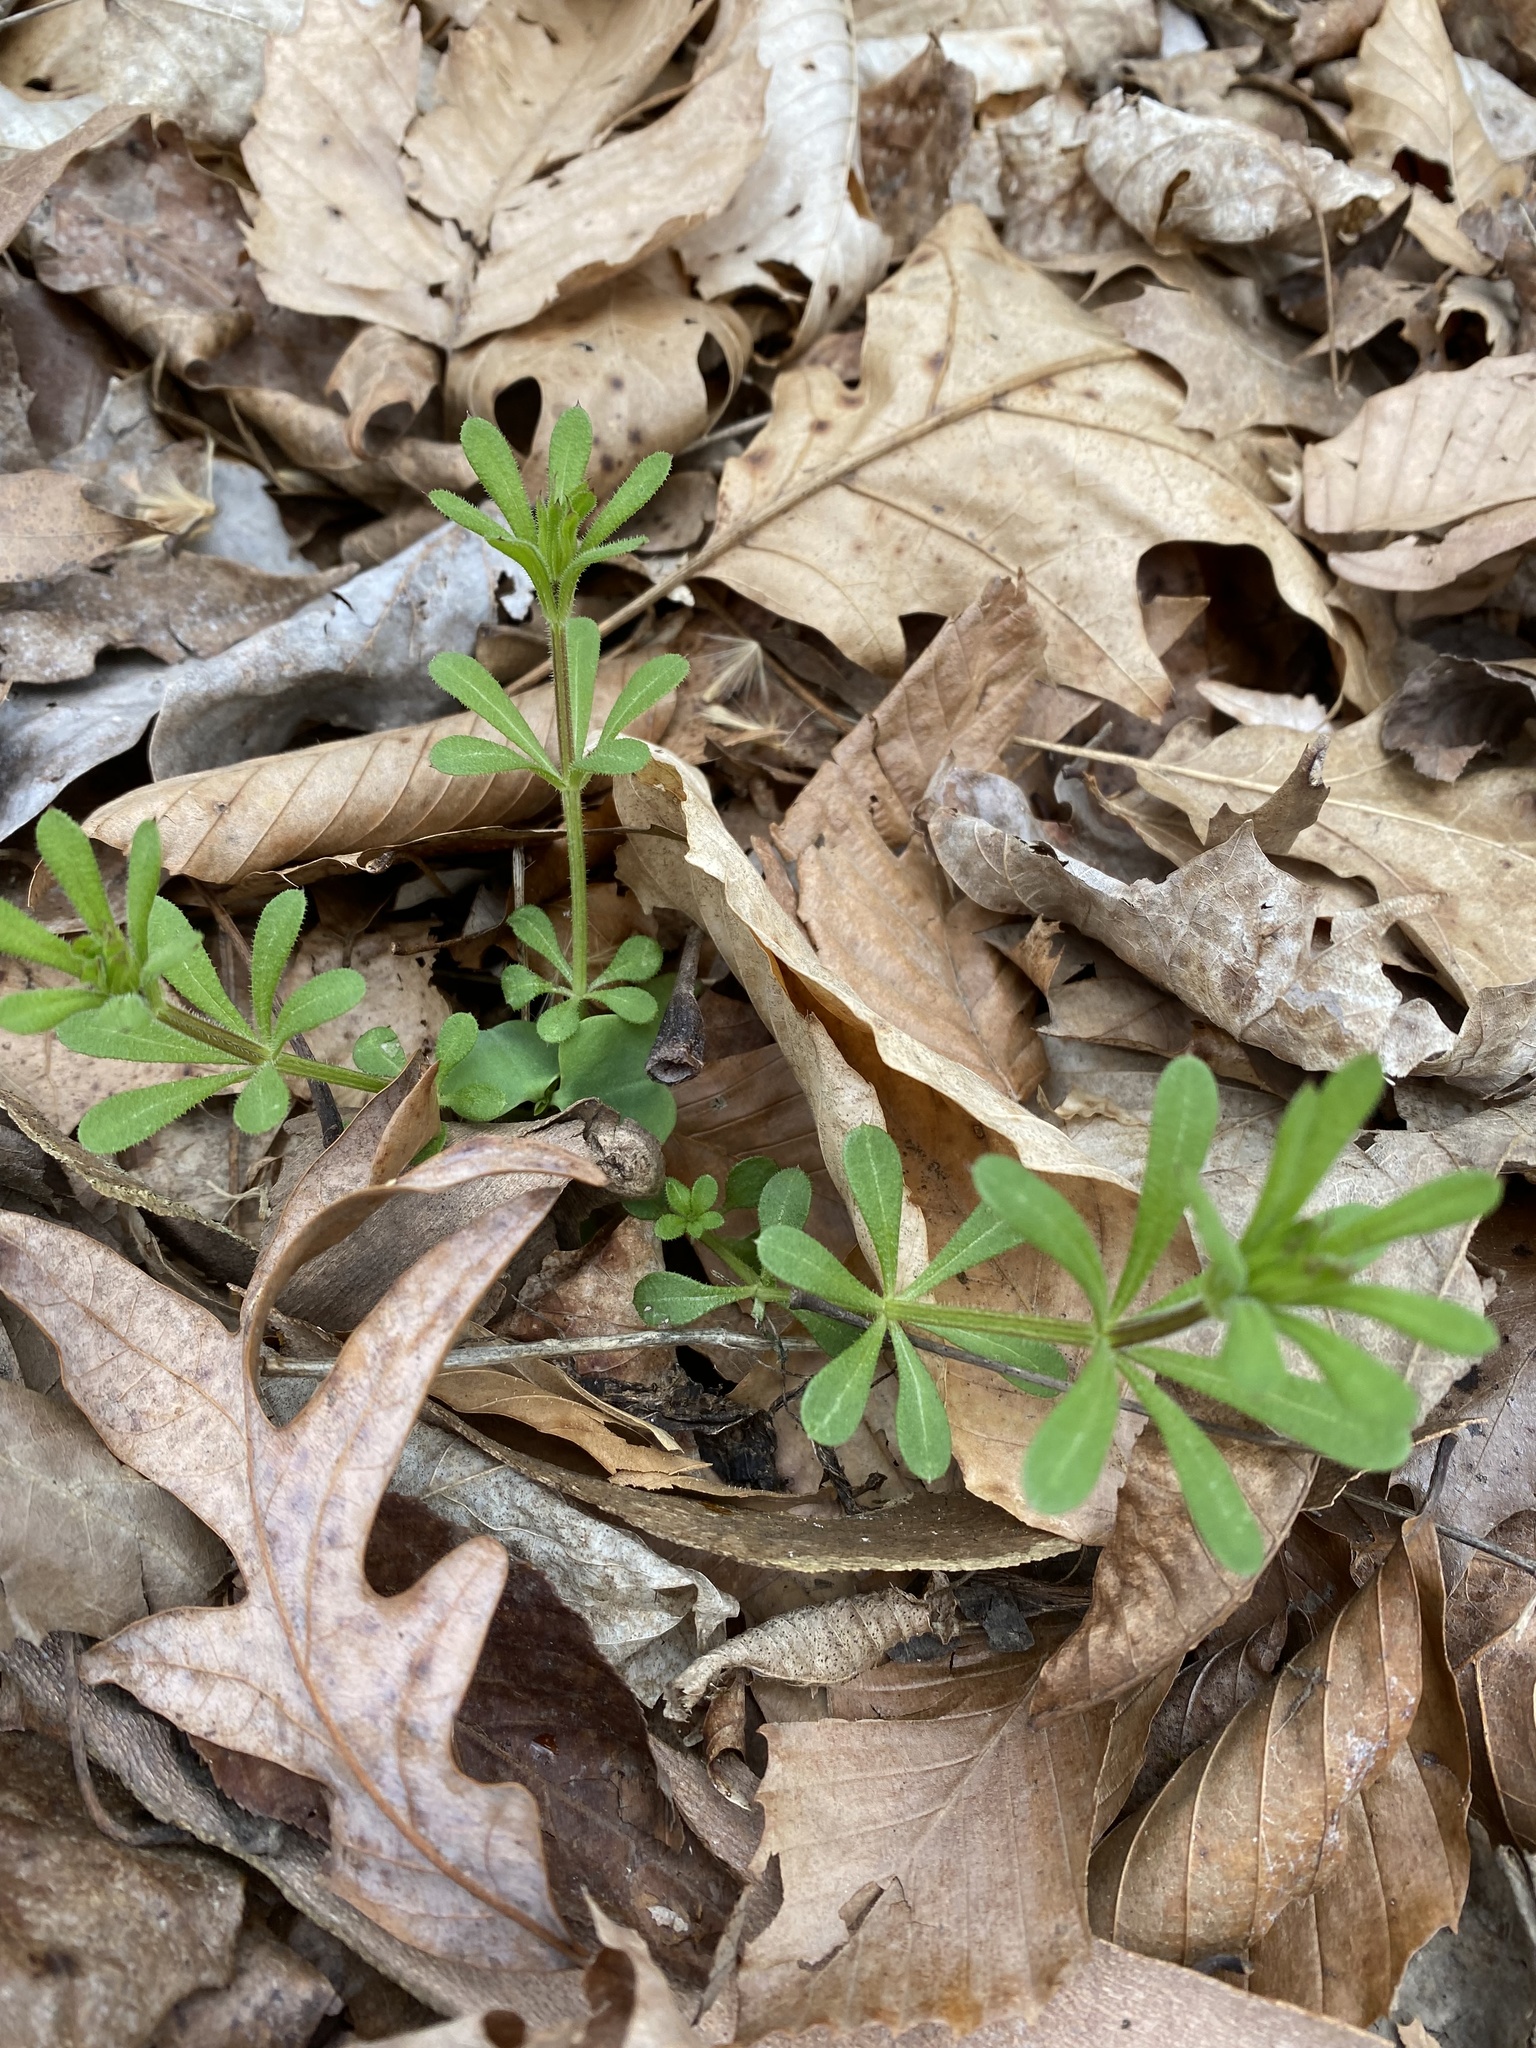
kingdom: Plantae
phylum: Tracheophyta
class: Magnoliopsida
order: Gentianales
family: Rubiaceae
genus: Galium
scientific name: Galium aparine
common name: Cleavers
